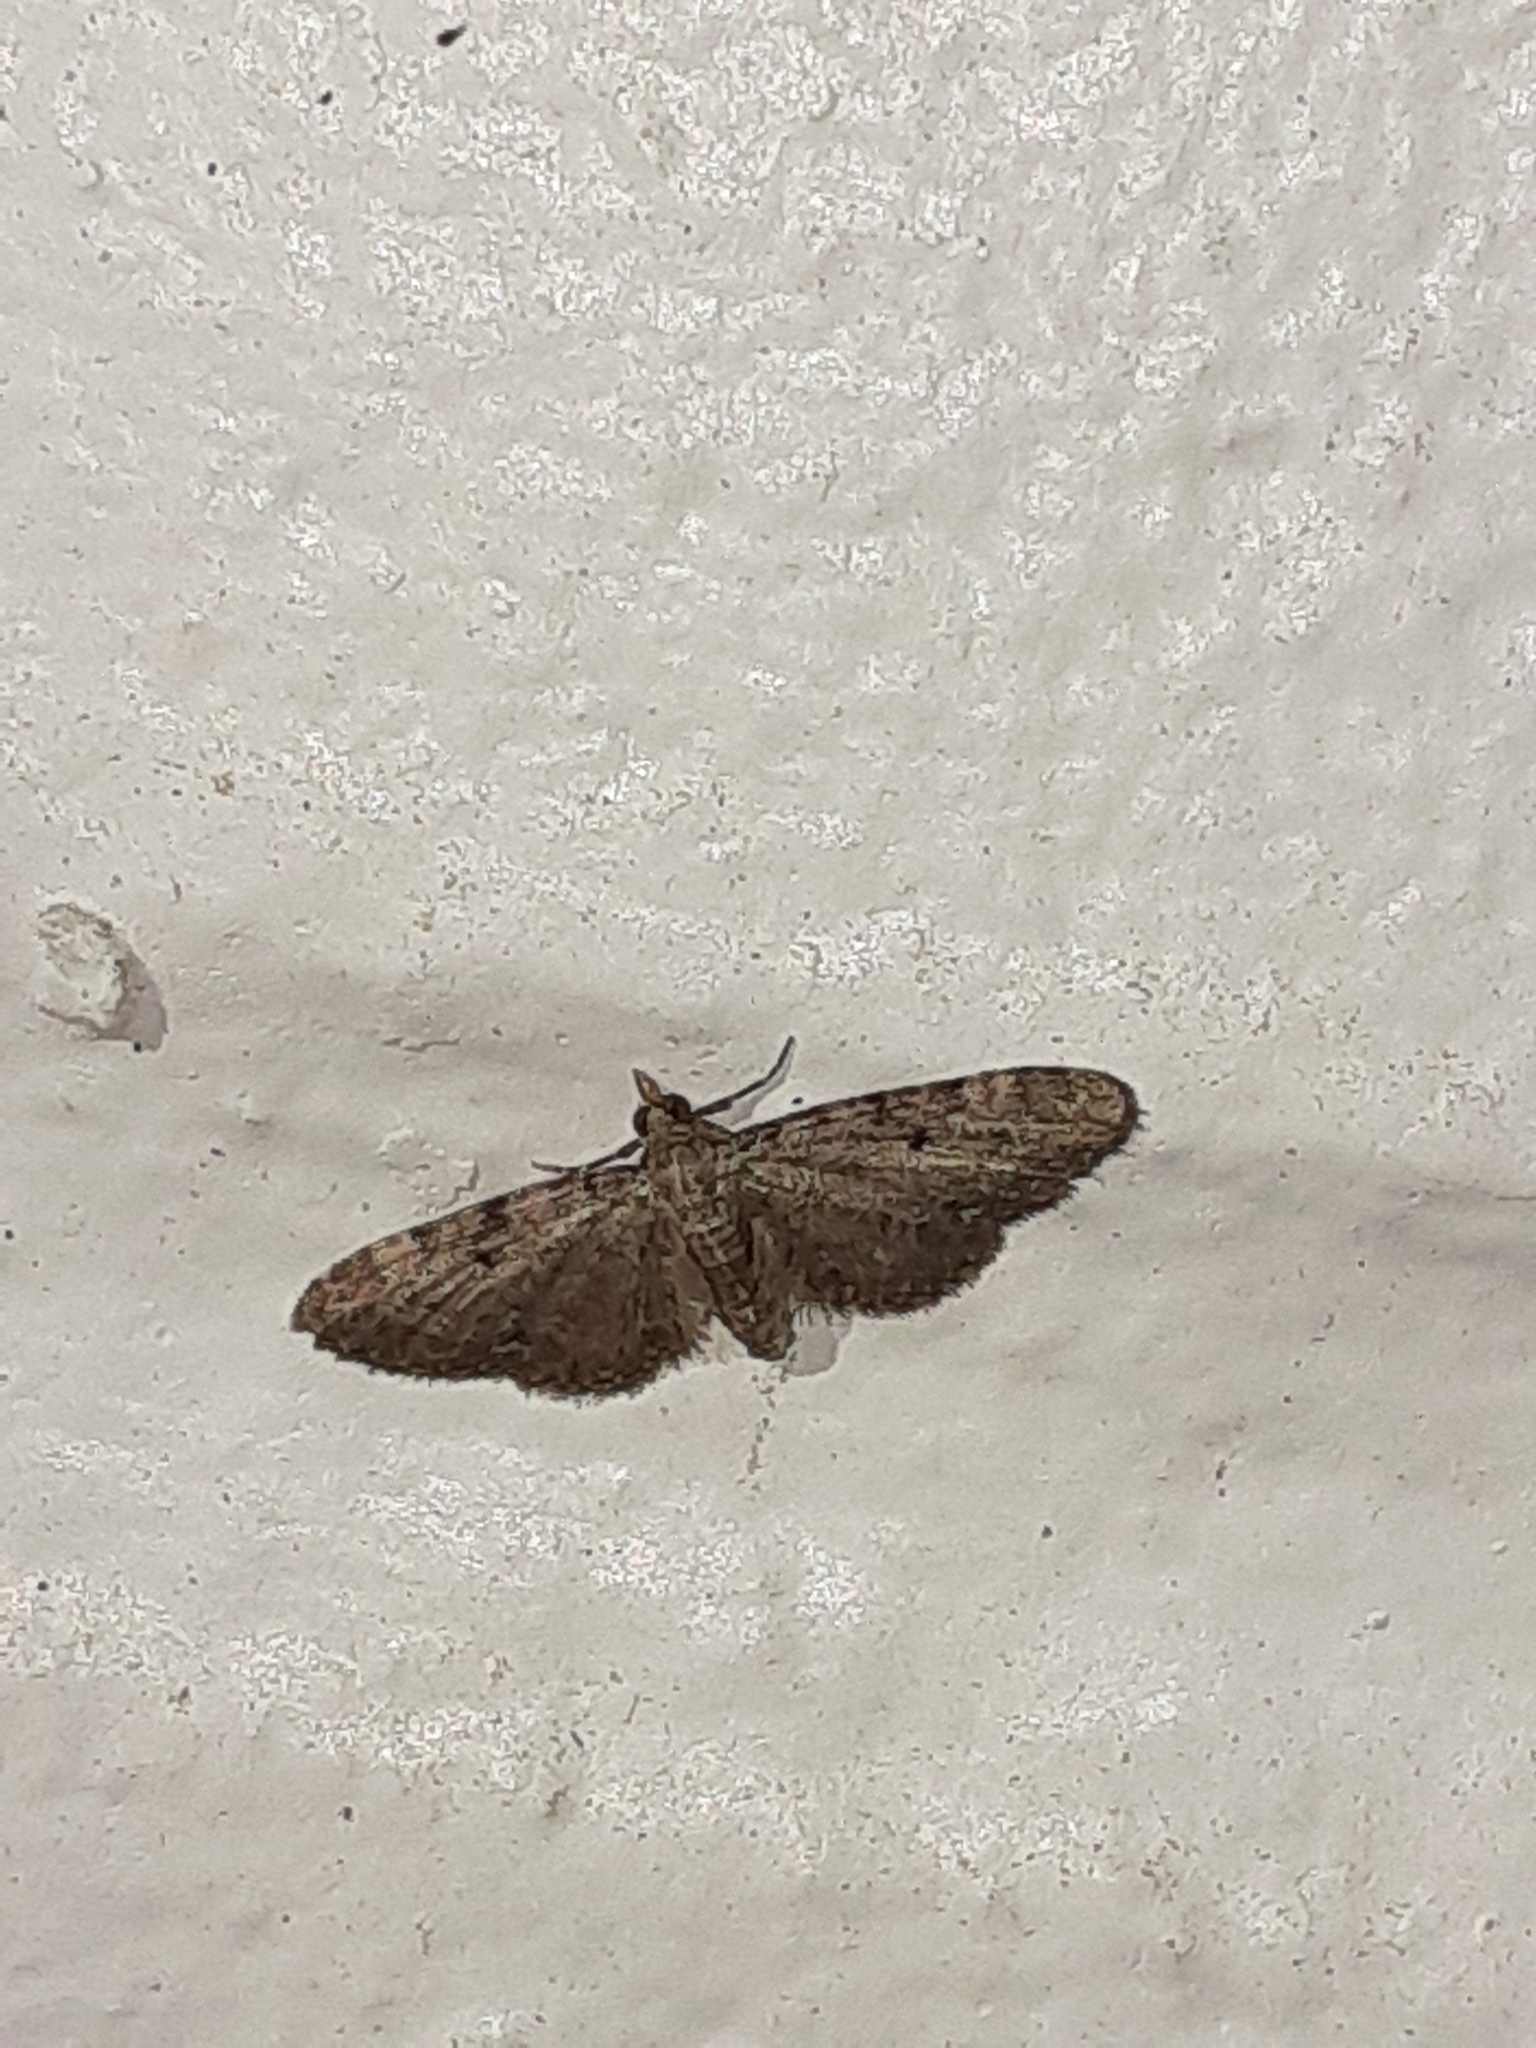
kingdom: Animalia
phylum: Arthropoda
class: Insecta
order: Lepidoptera
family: Geometridae
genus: Eupithecia
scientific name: Eupithecia miserulata
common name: Common eupithecia
